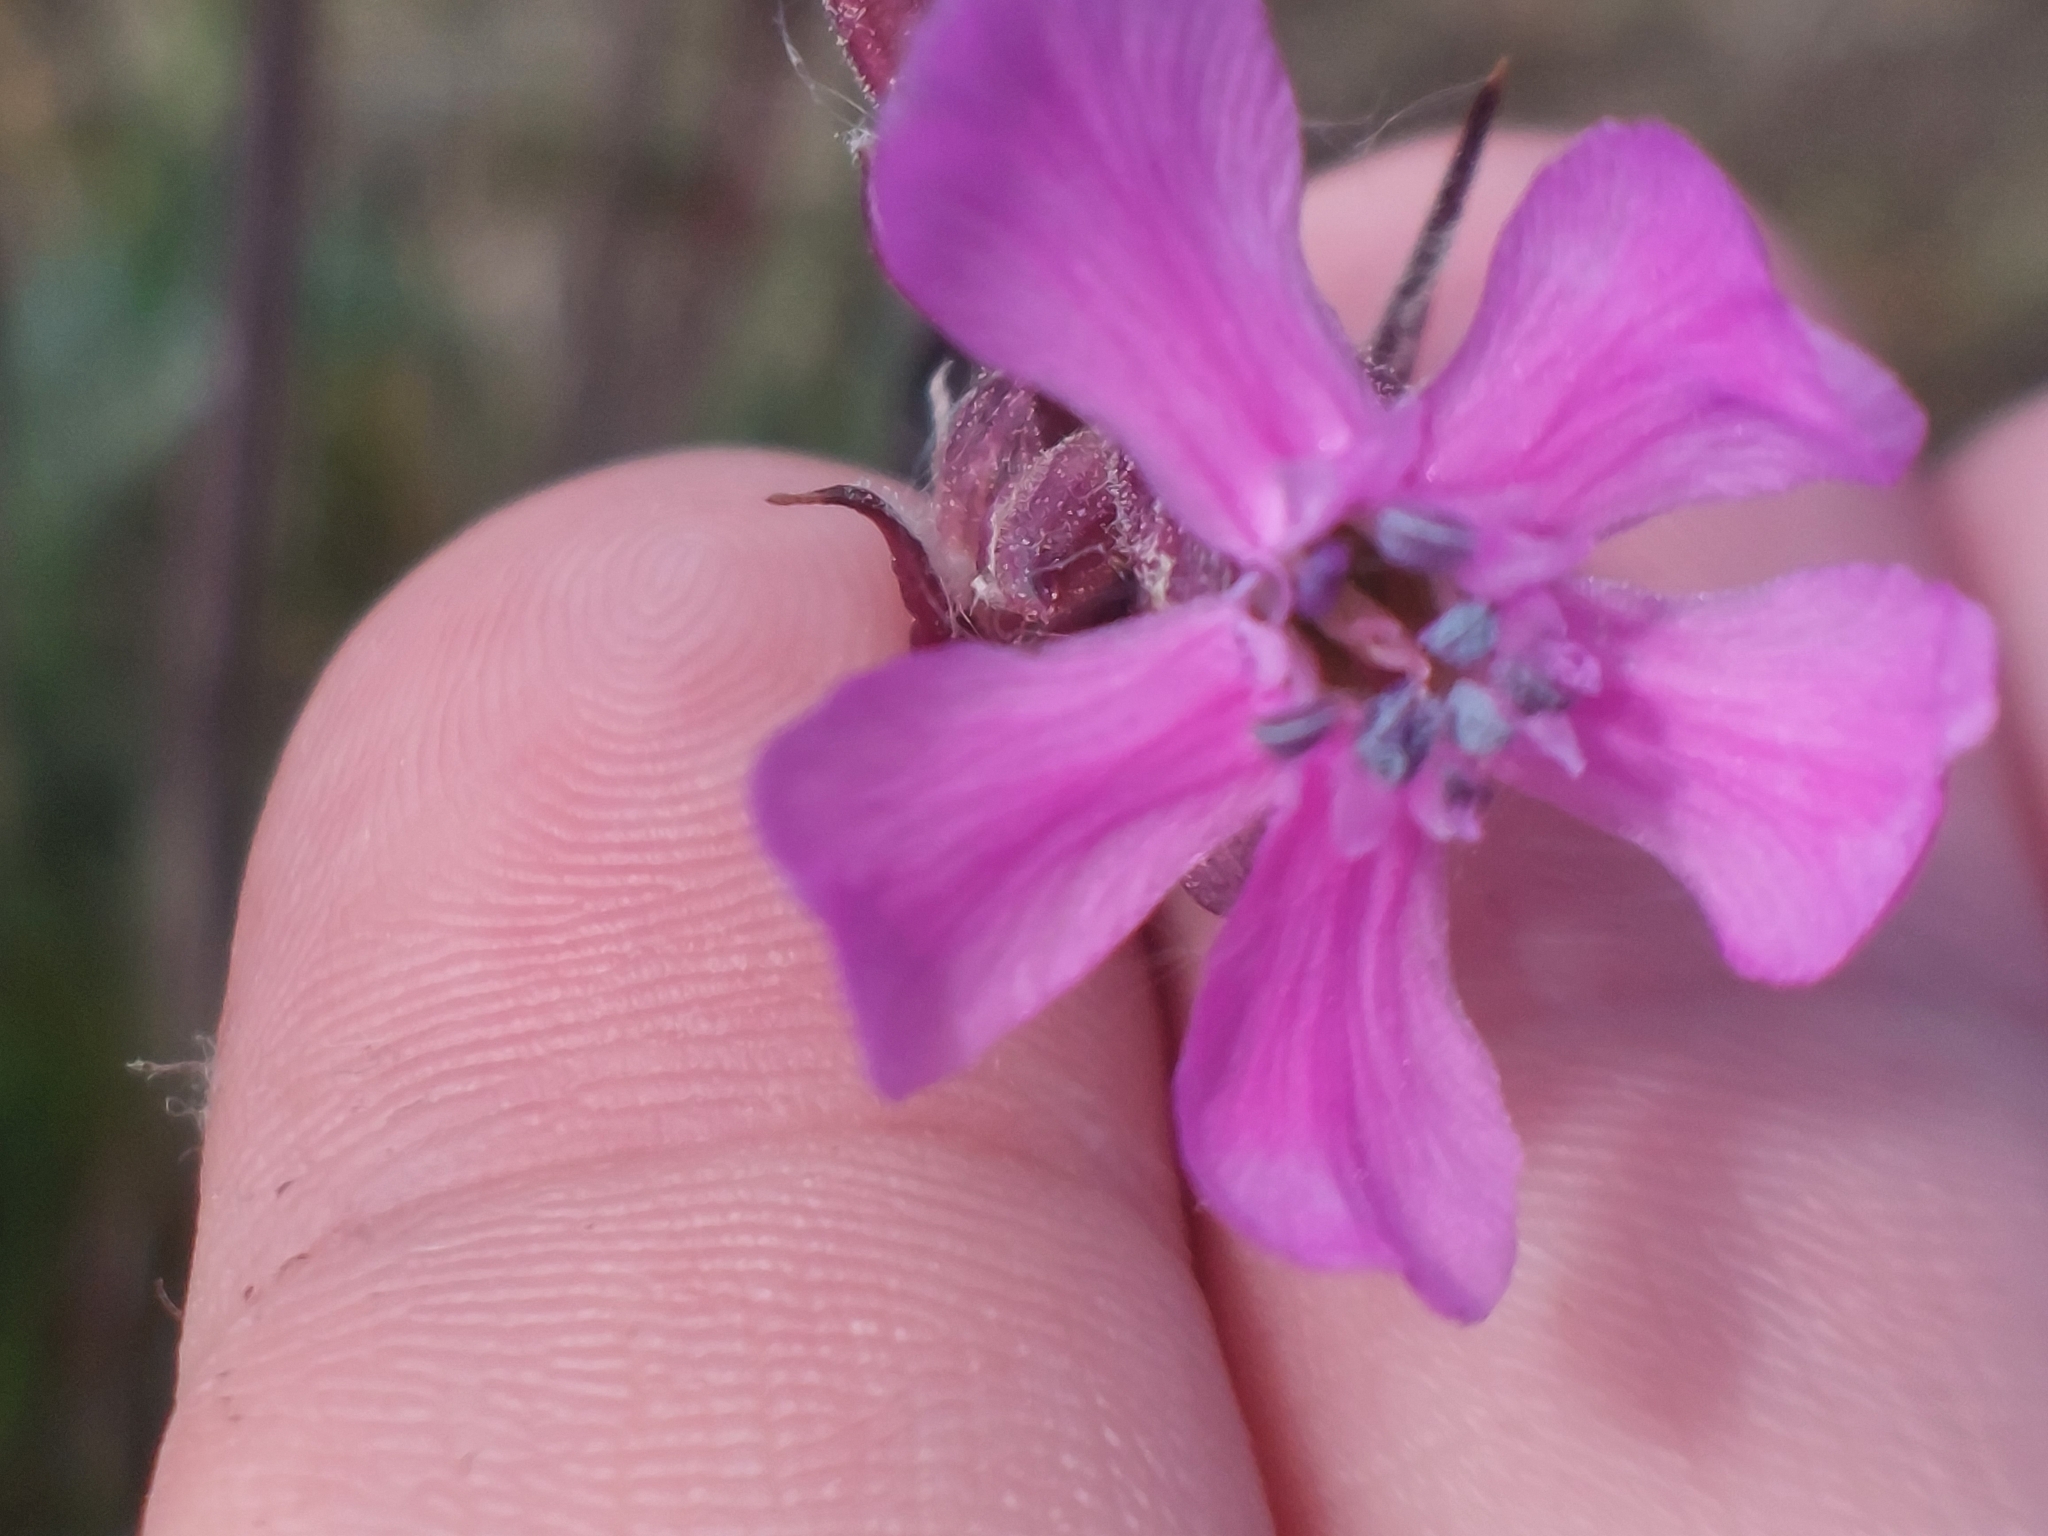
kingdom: Plantae
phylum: Tracheophyta
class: Magnoliopsida
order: Caryophyllales
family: Caryophyllaceae
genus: Viscaria
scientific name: Viscaria vulgaris
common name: Clammy campion
